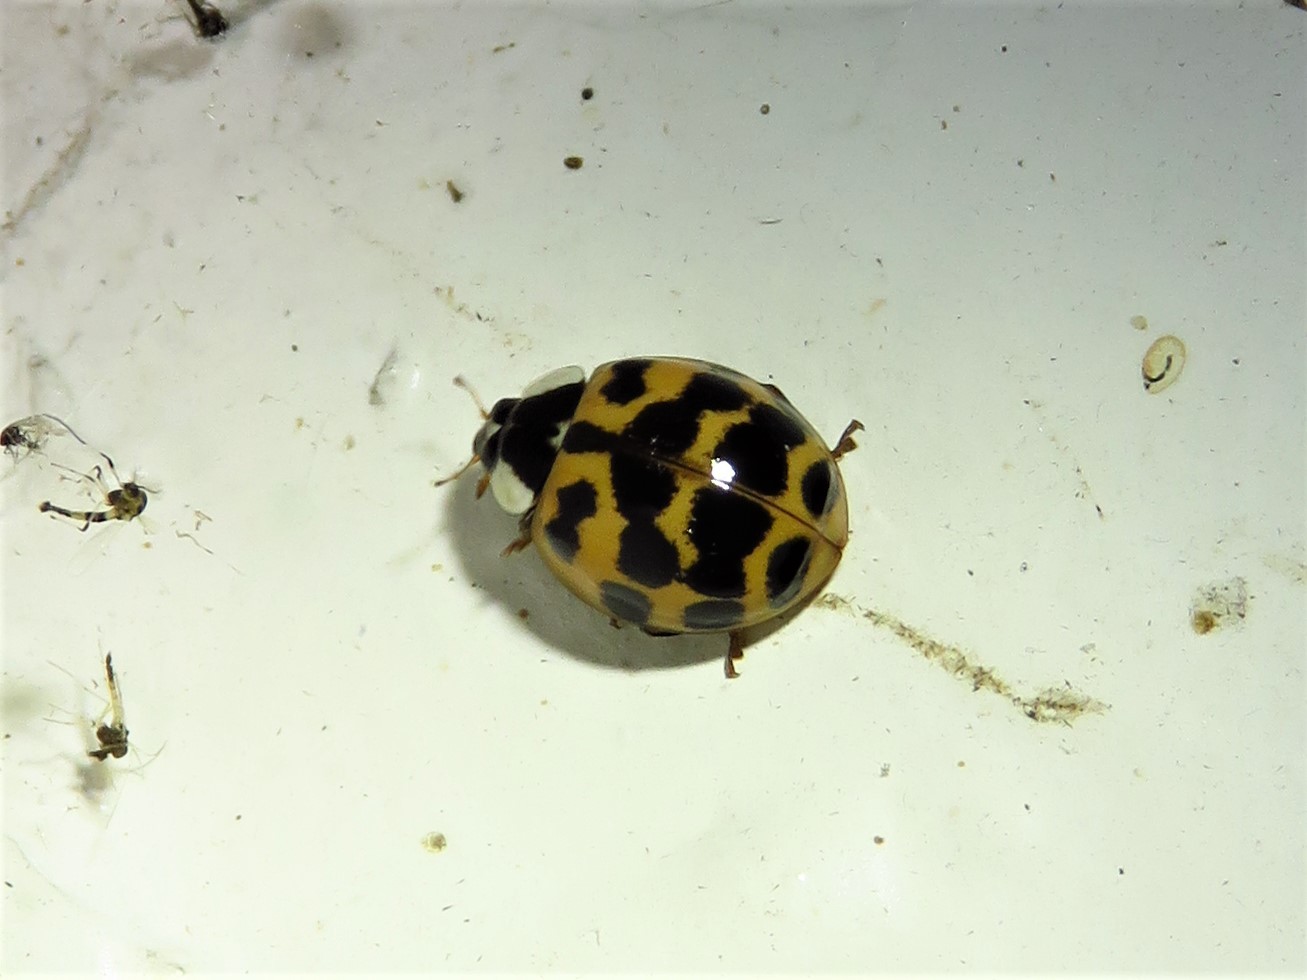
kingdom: Animalia
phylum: Arthropoda
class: Insecta
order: Coleoptera
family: Coccinellidae
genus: Harmonia
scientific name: Harmonia axyridis
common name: Harlequin ladybird
